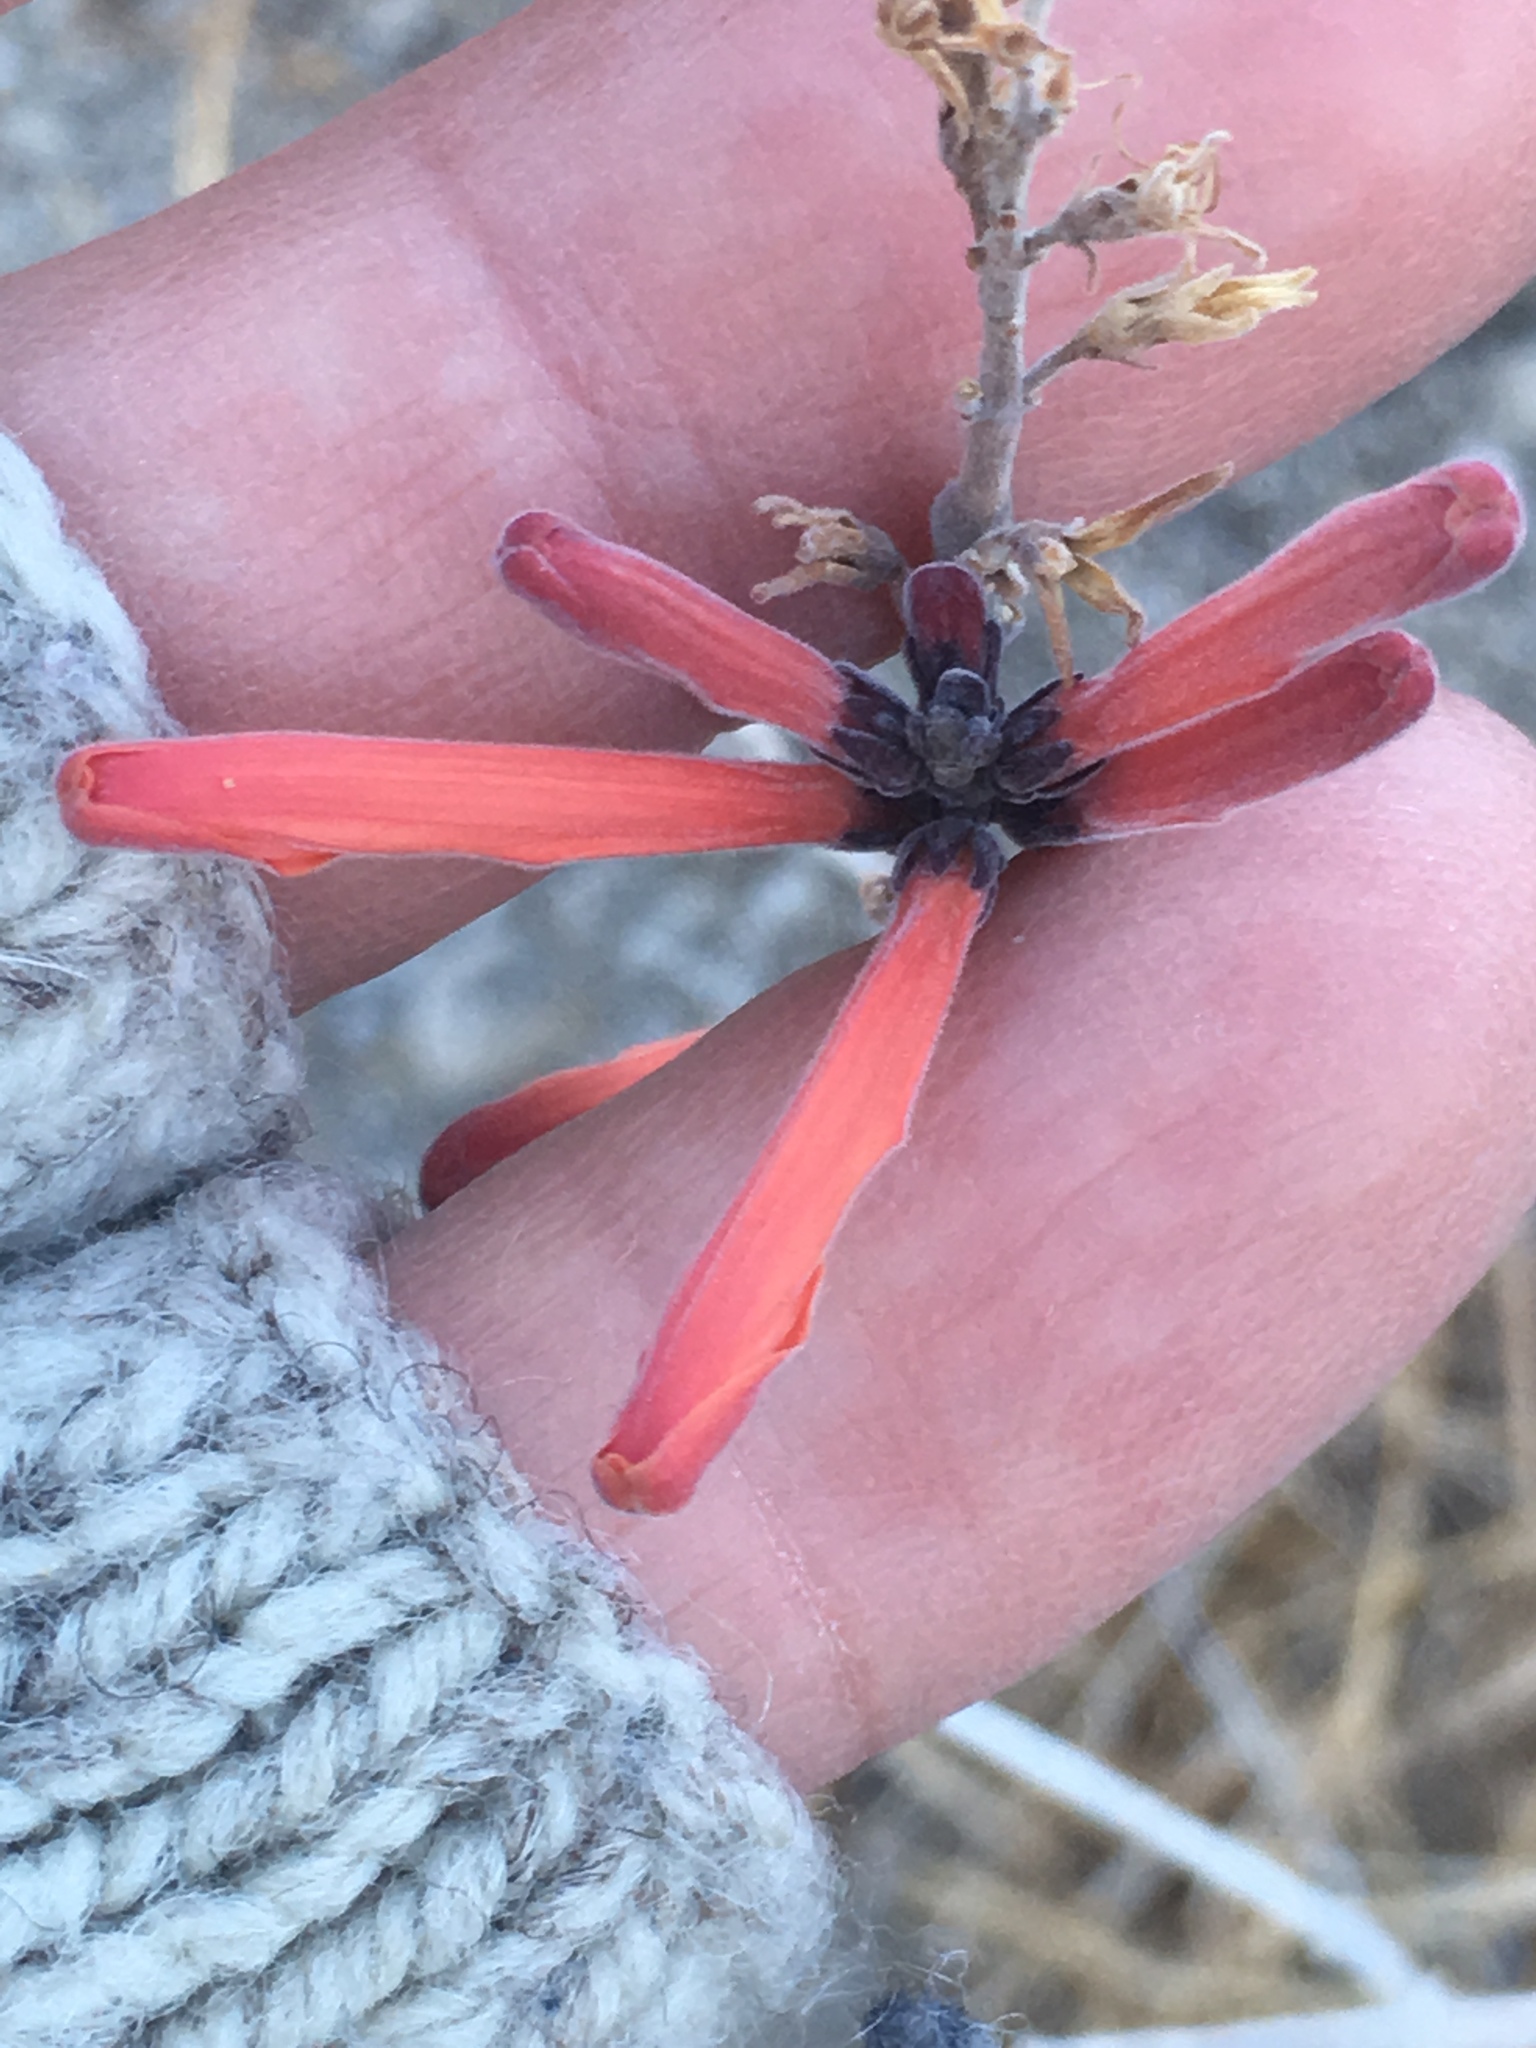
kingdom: Plantae
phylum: Tracheophyta
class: Magnoliopsida
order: Lamiales
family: Acanthaceae
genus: Justicia
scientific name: Justicia californica
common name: Chuparosa-honeysuckle
